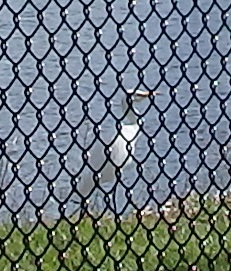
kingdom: Animalia
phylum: Chordata
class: Aves
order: Pelecaniformes
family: Ardeidae
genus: Bubulcus
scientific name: Bubulcus ibis
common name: Cattle egret
